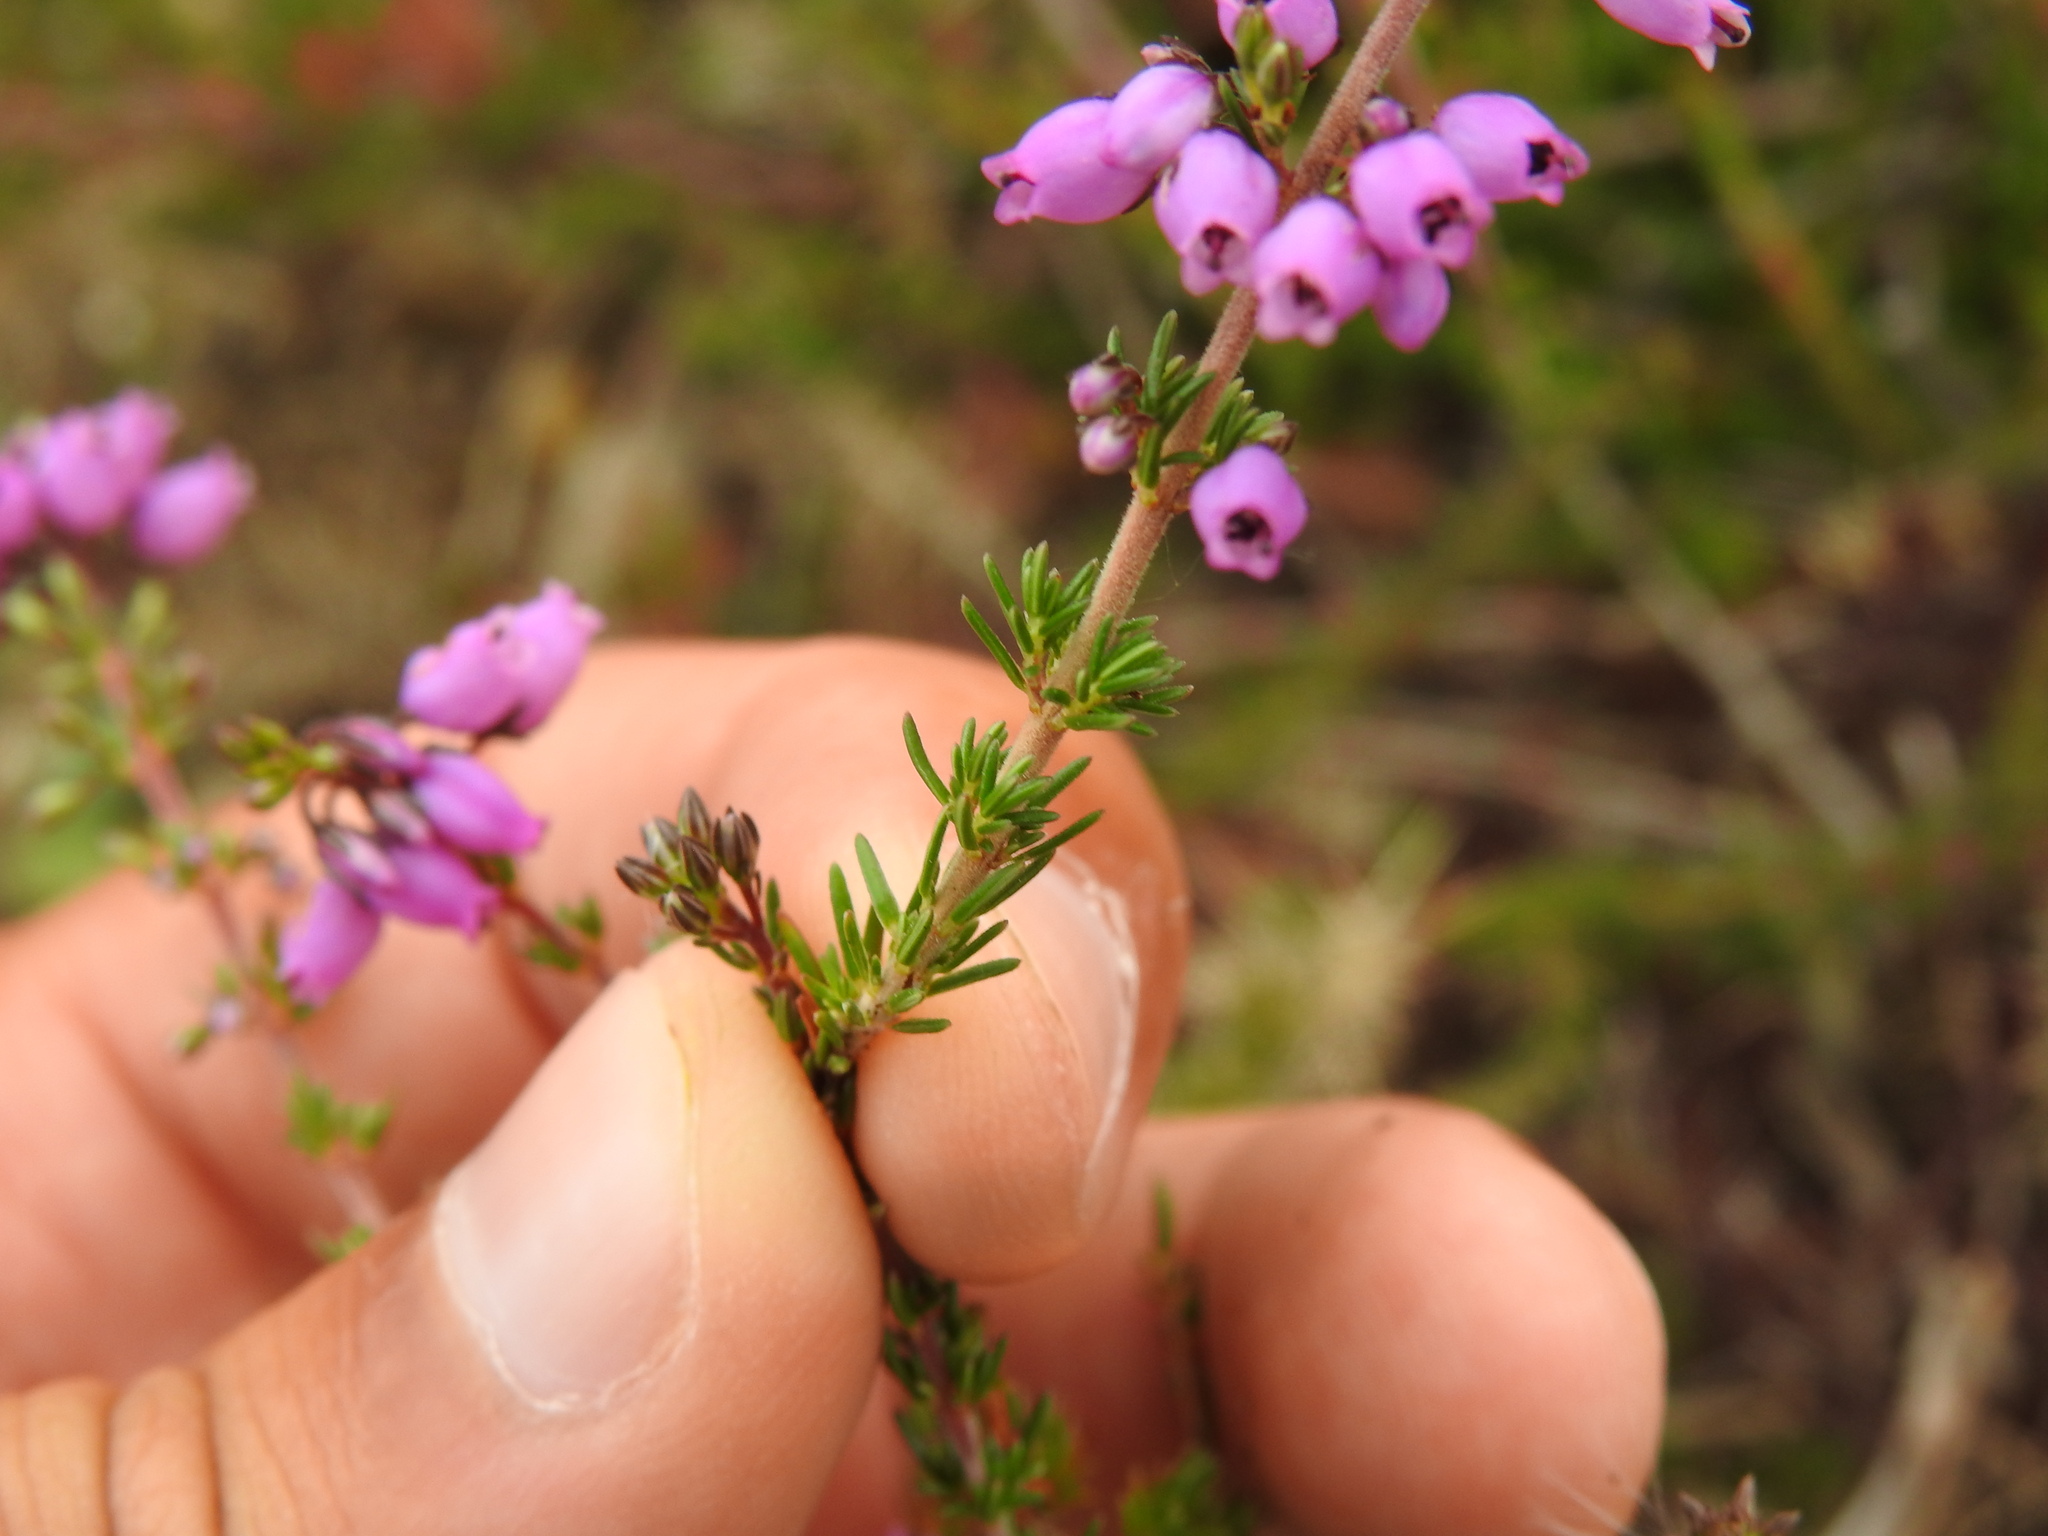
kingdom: Plantae
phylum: Tracheophyta
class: Magnoliopsida
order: Ericales
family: Ericaceae
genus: Erica
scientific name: Erica cinerea
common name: Bell heather
